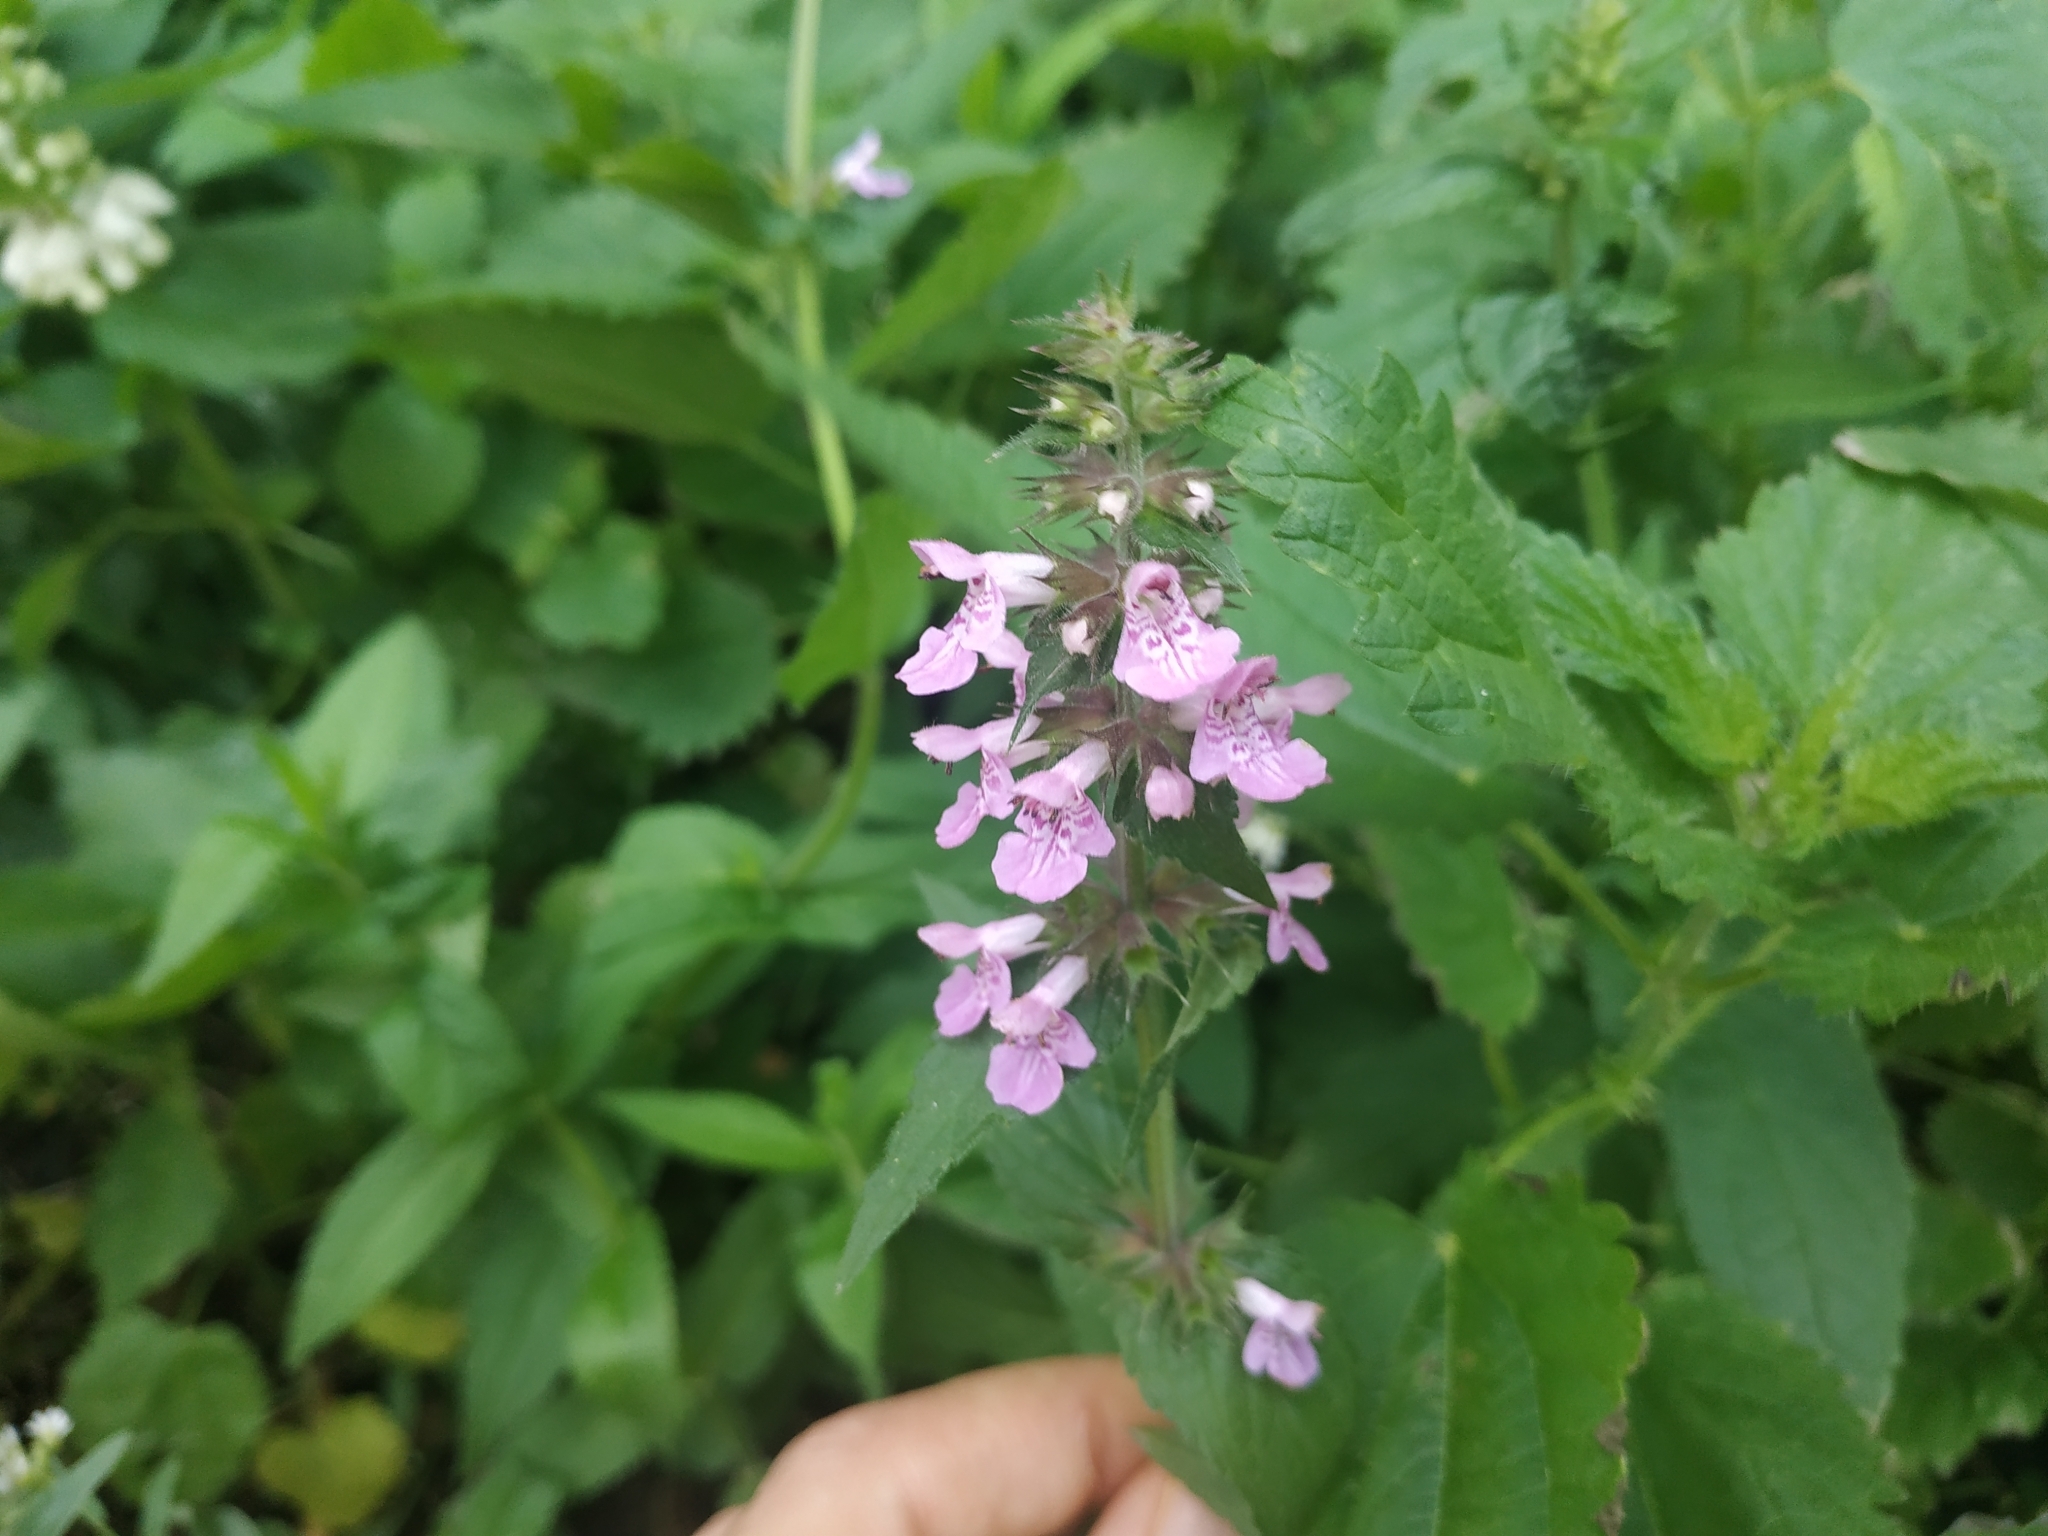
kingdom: Plantae
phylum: Tracheophyta
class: Magnoliopsida
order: Lamiales
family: Lamiaceae
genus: Stachys
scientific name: Stachys palustris
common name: Marsh woundwort
